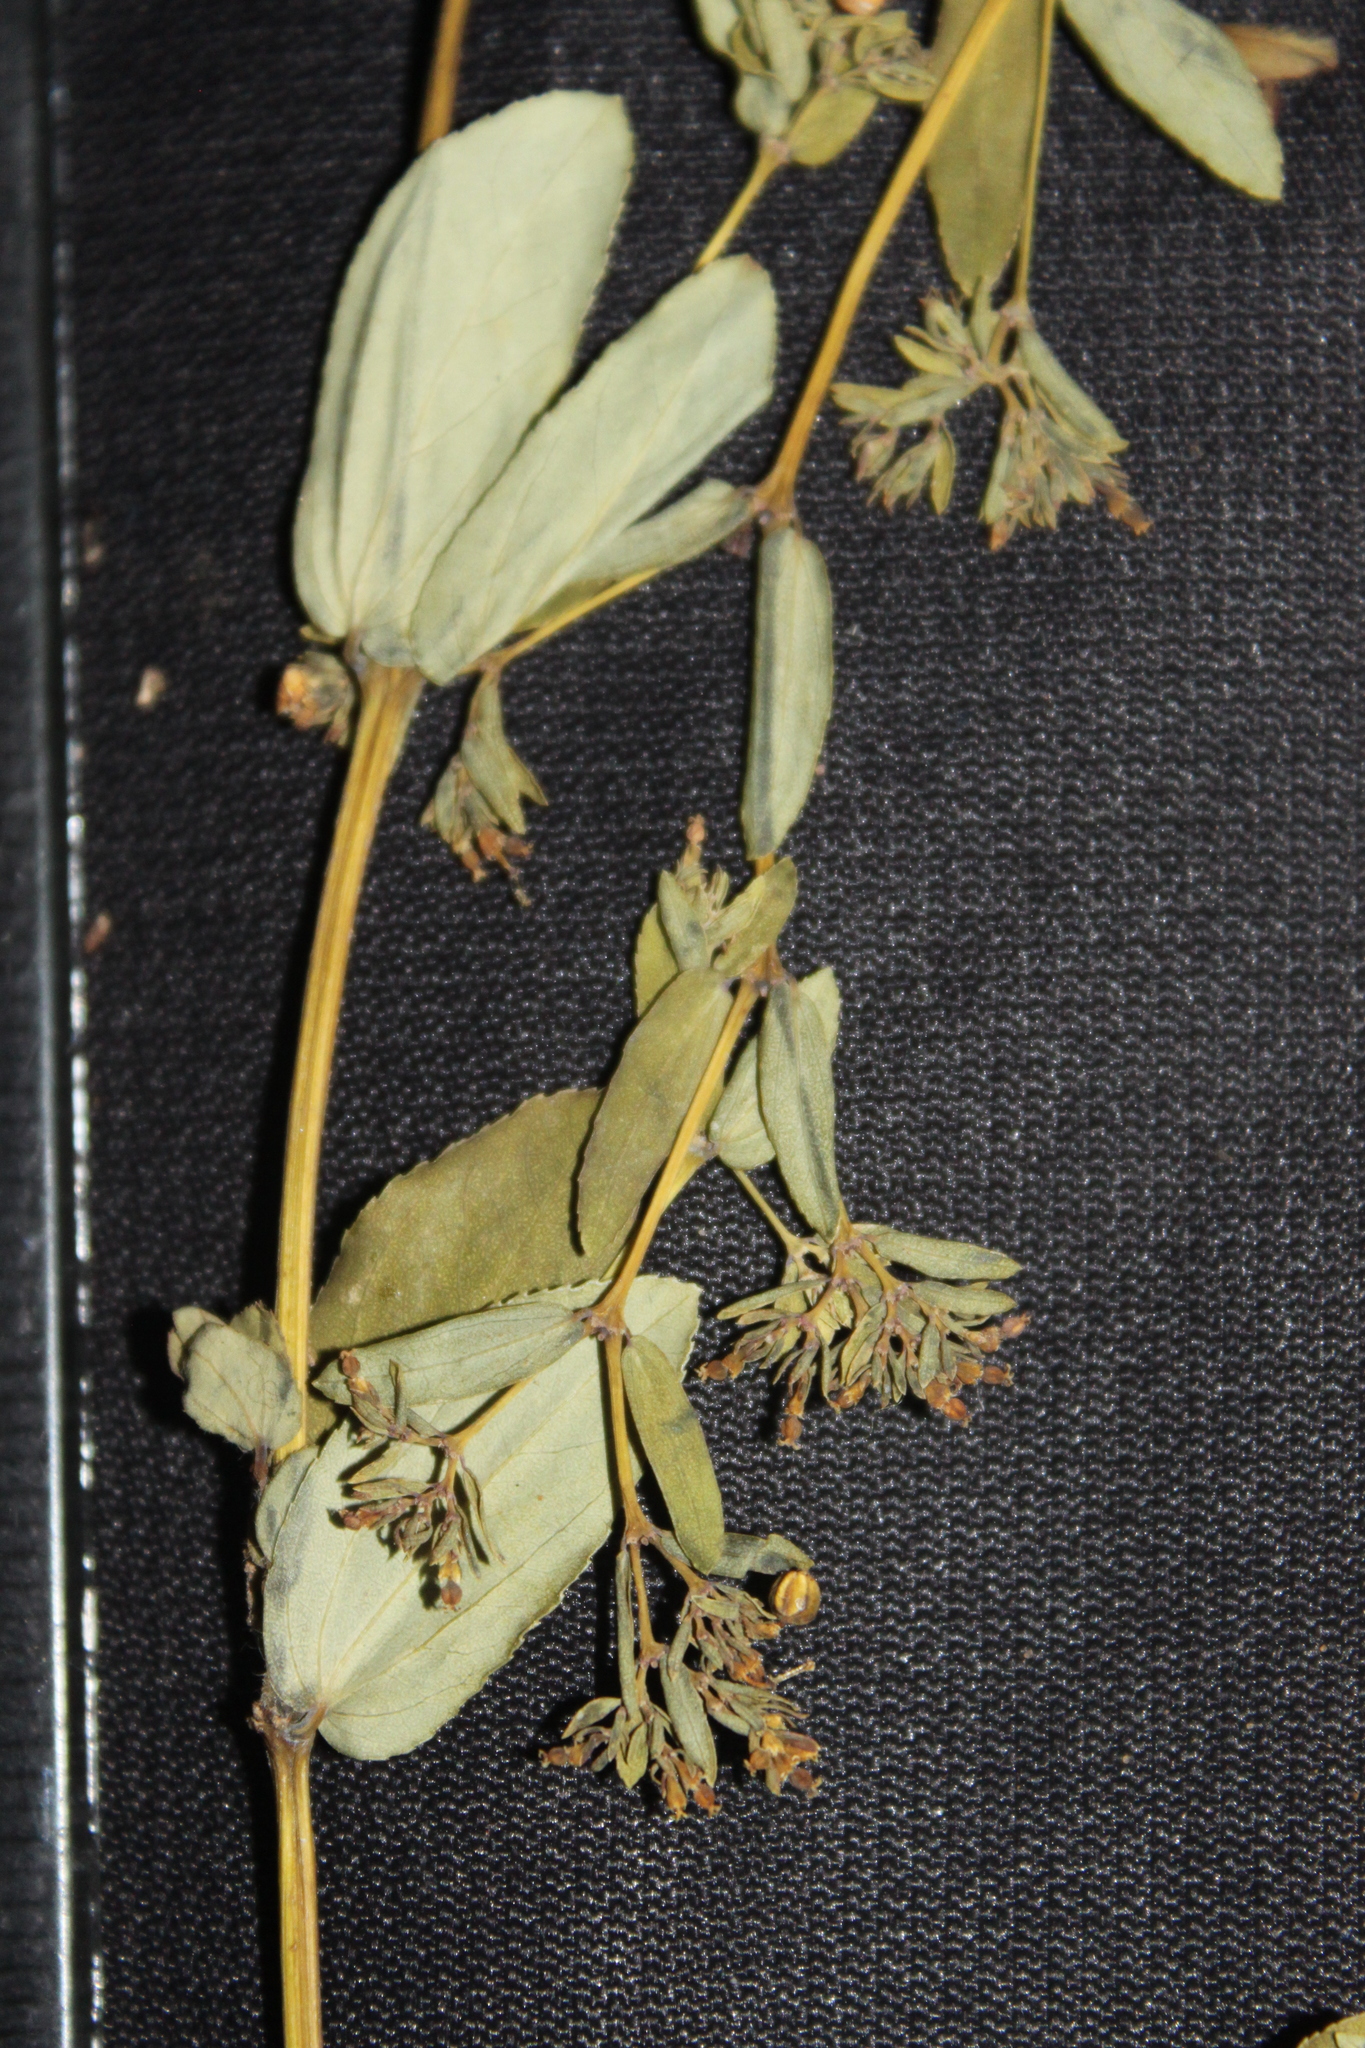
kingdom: Plantae
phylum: Tracheophyta
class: Magnoliopsida
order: Malpighiales
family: Euphorbiaceae
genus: Euphorbia
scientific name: Euphorbia hyssopifolia
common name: Hyssopleaf sandmat
